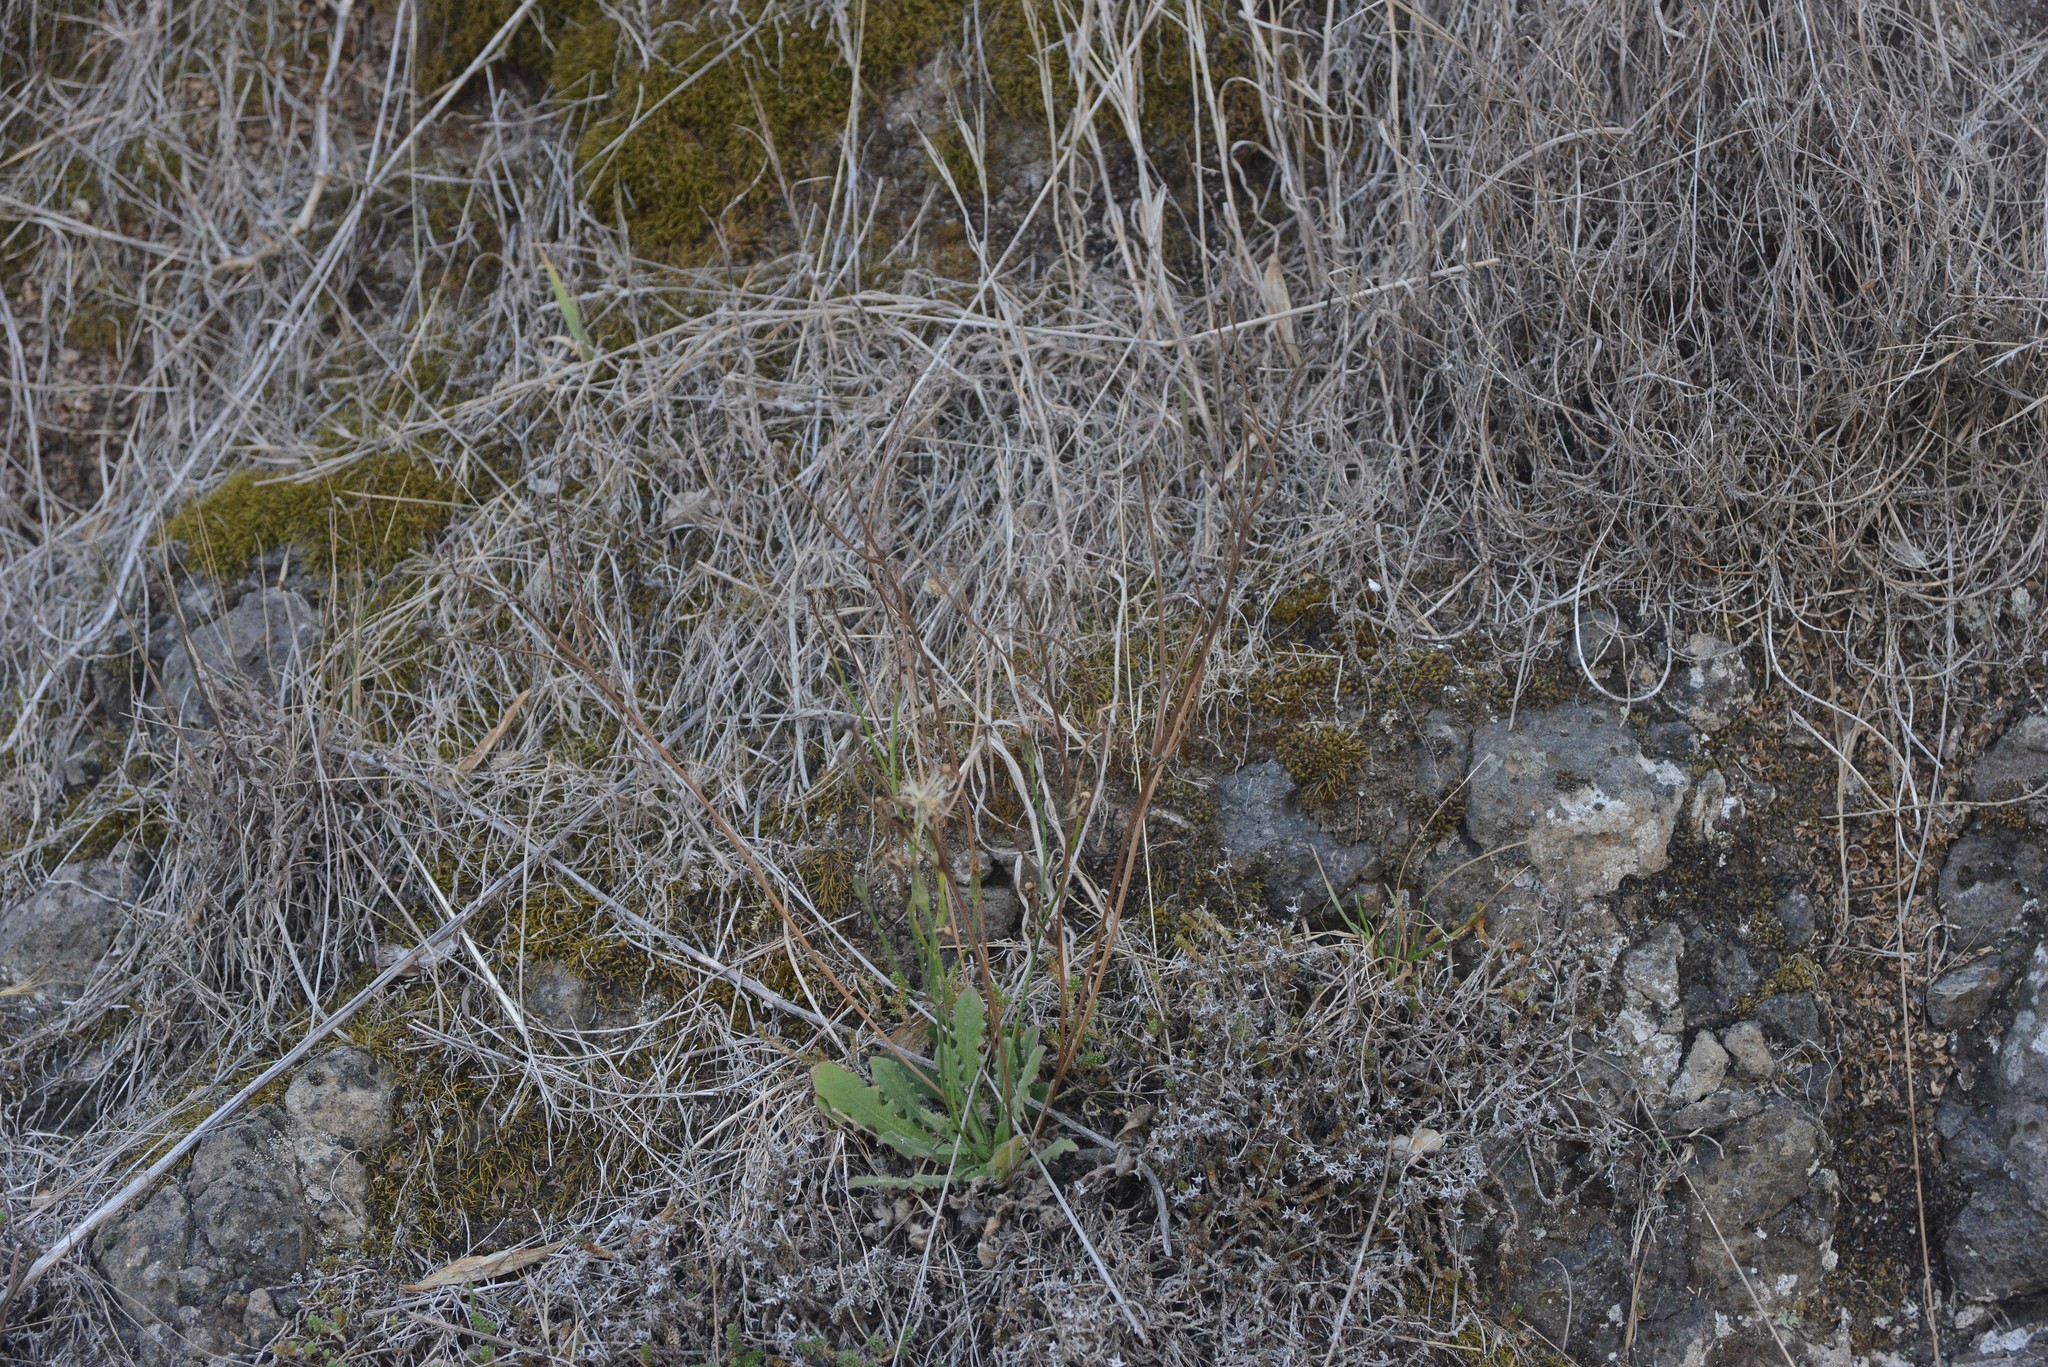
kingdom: Plantae
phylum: Tracheophyta
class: Magnoliopsida
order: Asterales
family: Asteraceae
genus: Senecio
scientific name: Senecio quadridentatus
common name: Cotton fireweed
